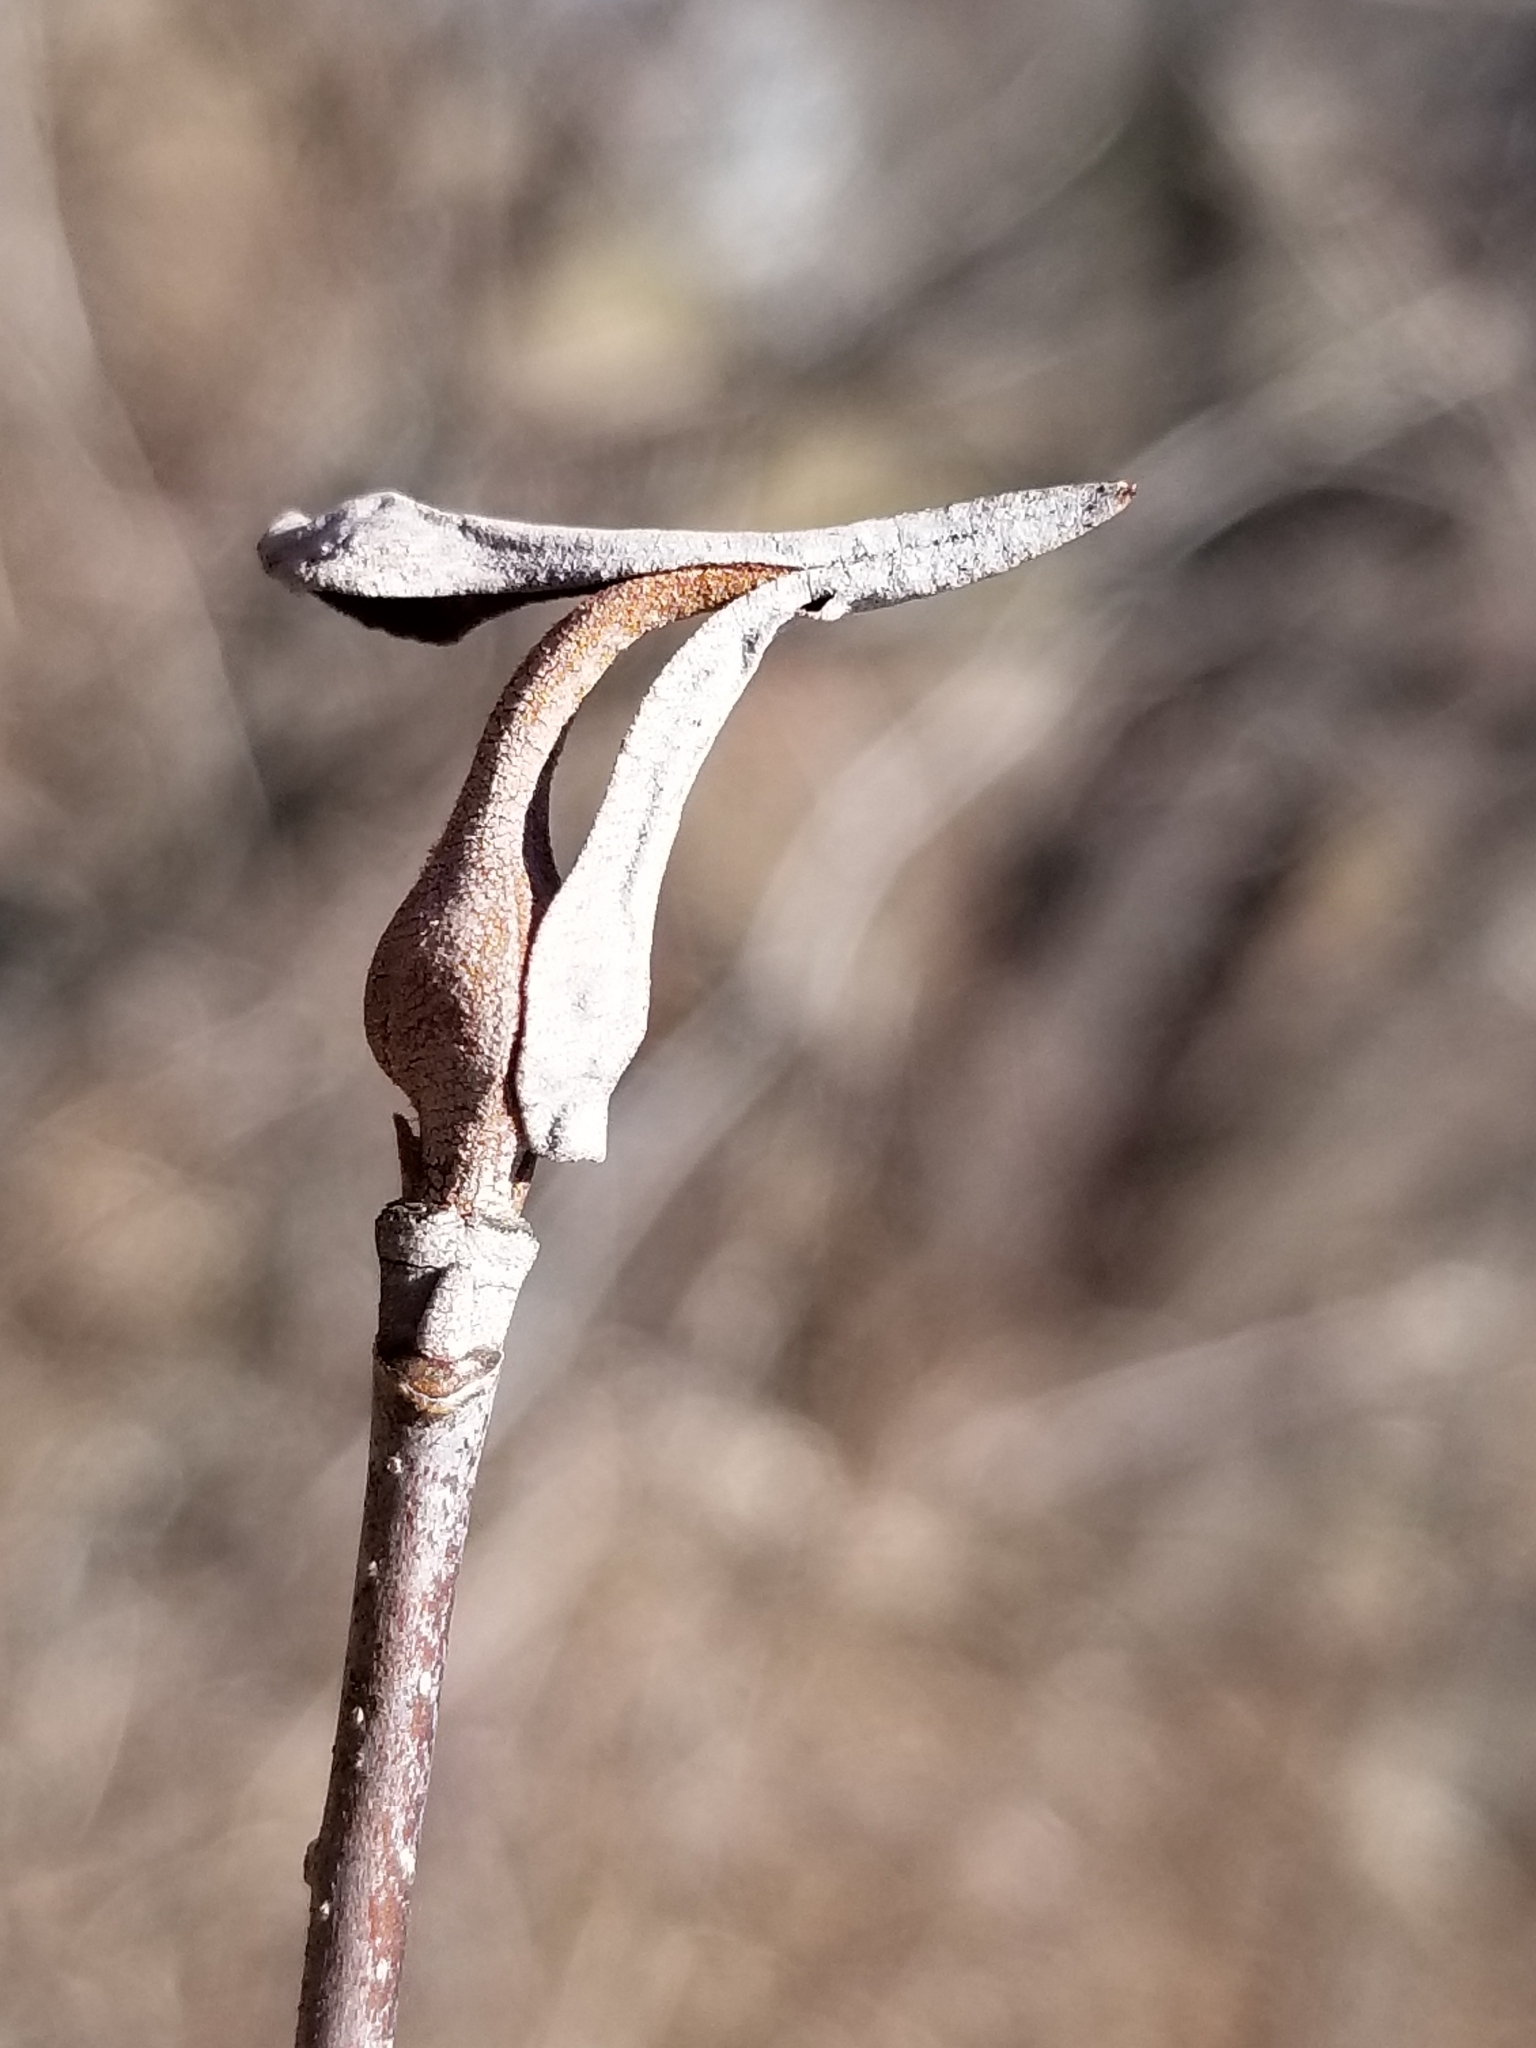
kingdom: Plantae
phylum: Tracheophyta
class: Magnoliopsida
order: Dipsacales
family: Viburnaceae
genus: Viburnum
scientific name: Viburnum lentago
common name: Black haw
